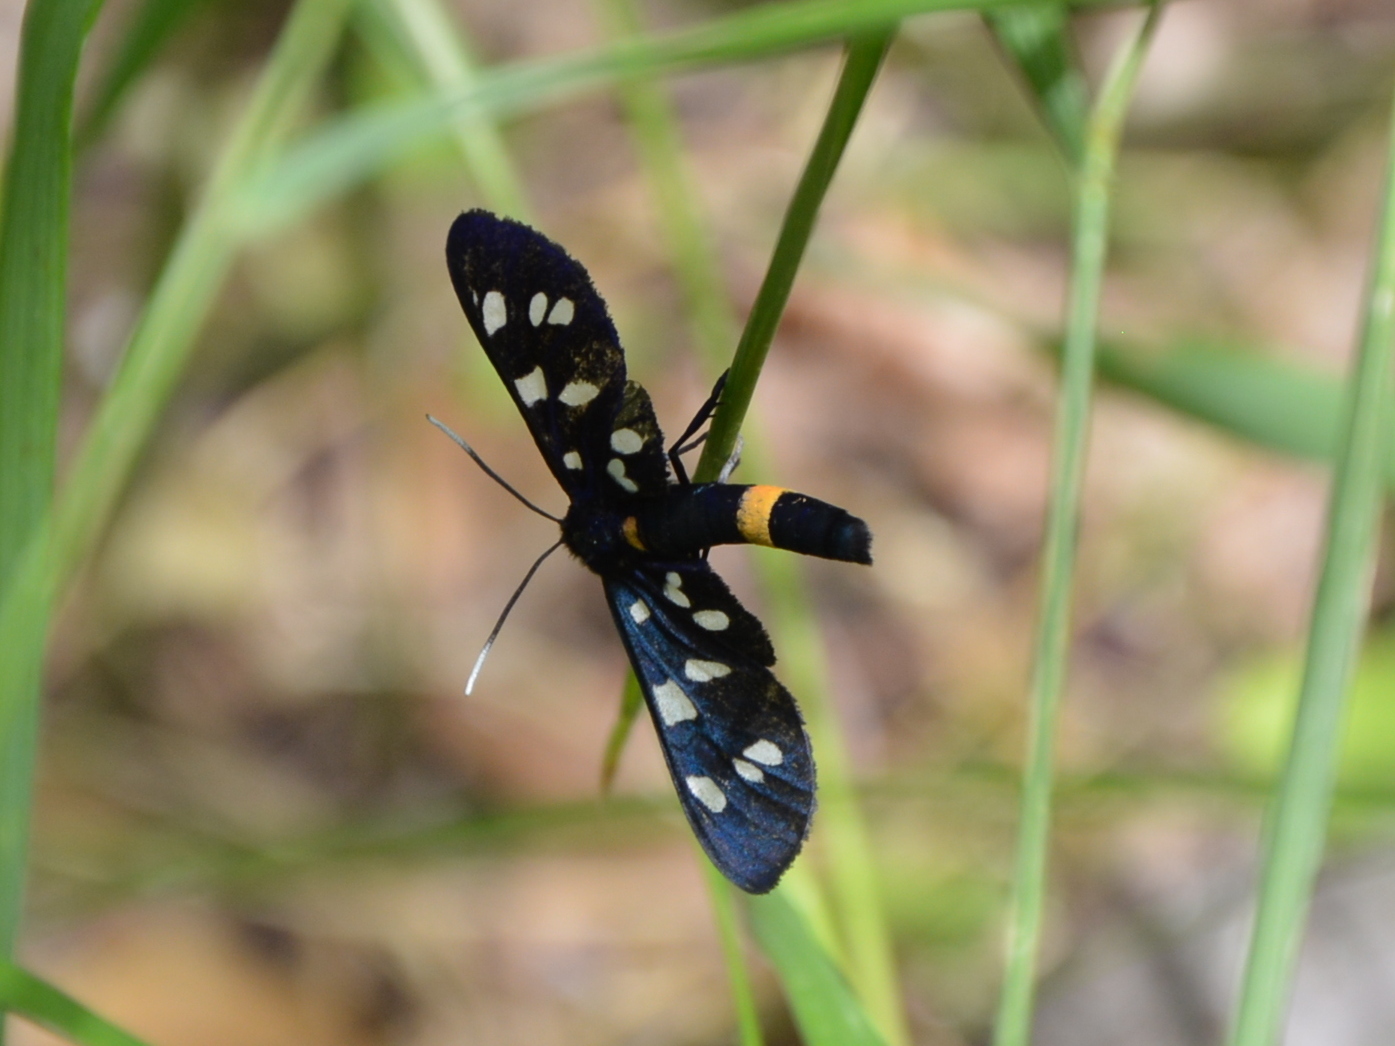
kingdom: Animalia
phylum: Arthropoda
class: Insecta
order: Lepidoptera
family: Erebidae
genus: Amata
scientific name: Amata phegea
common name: Nine-spotted
